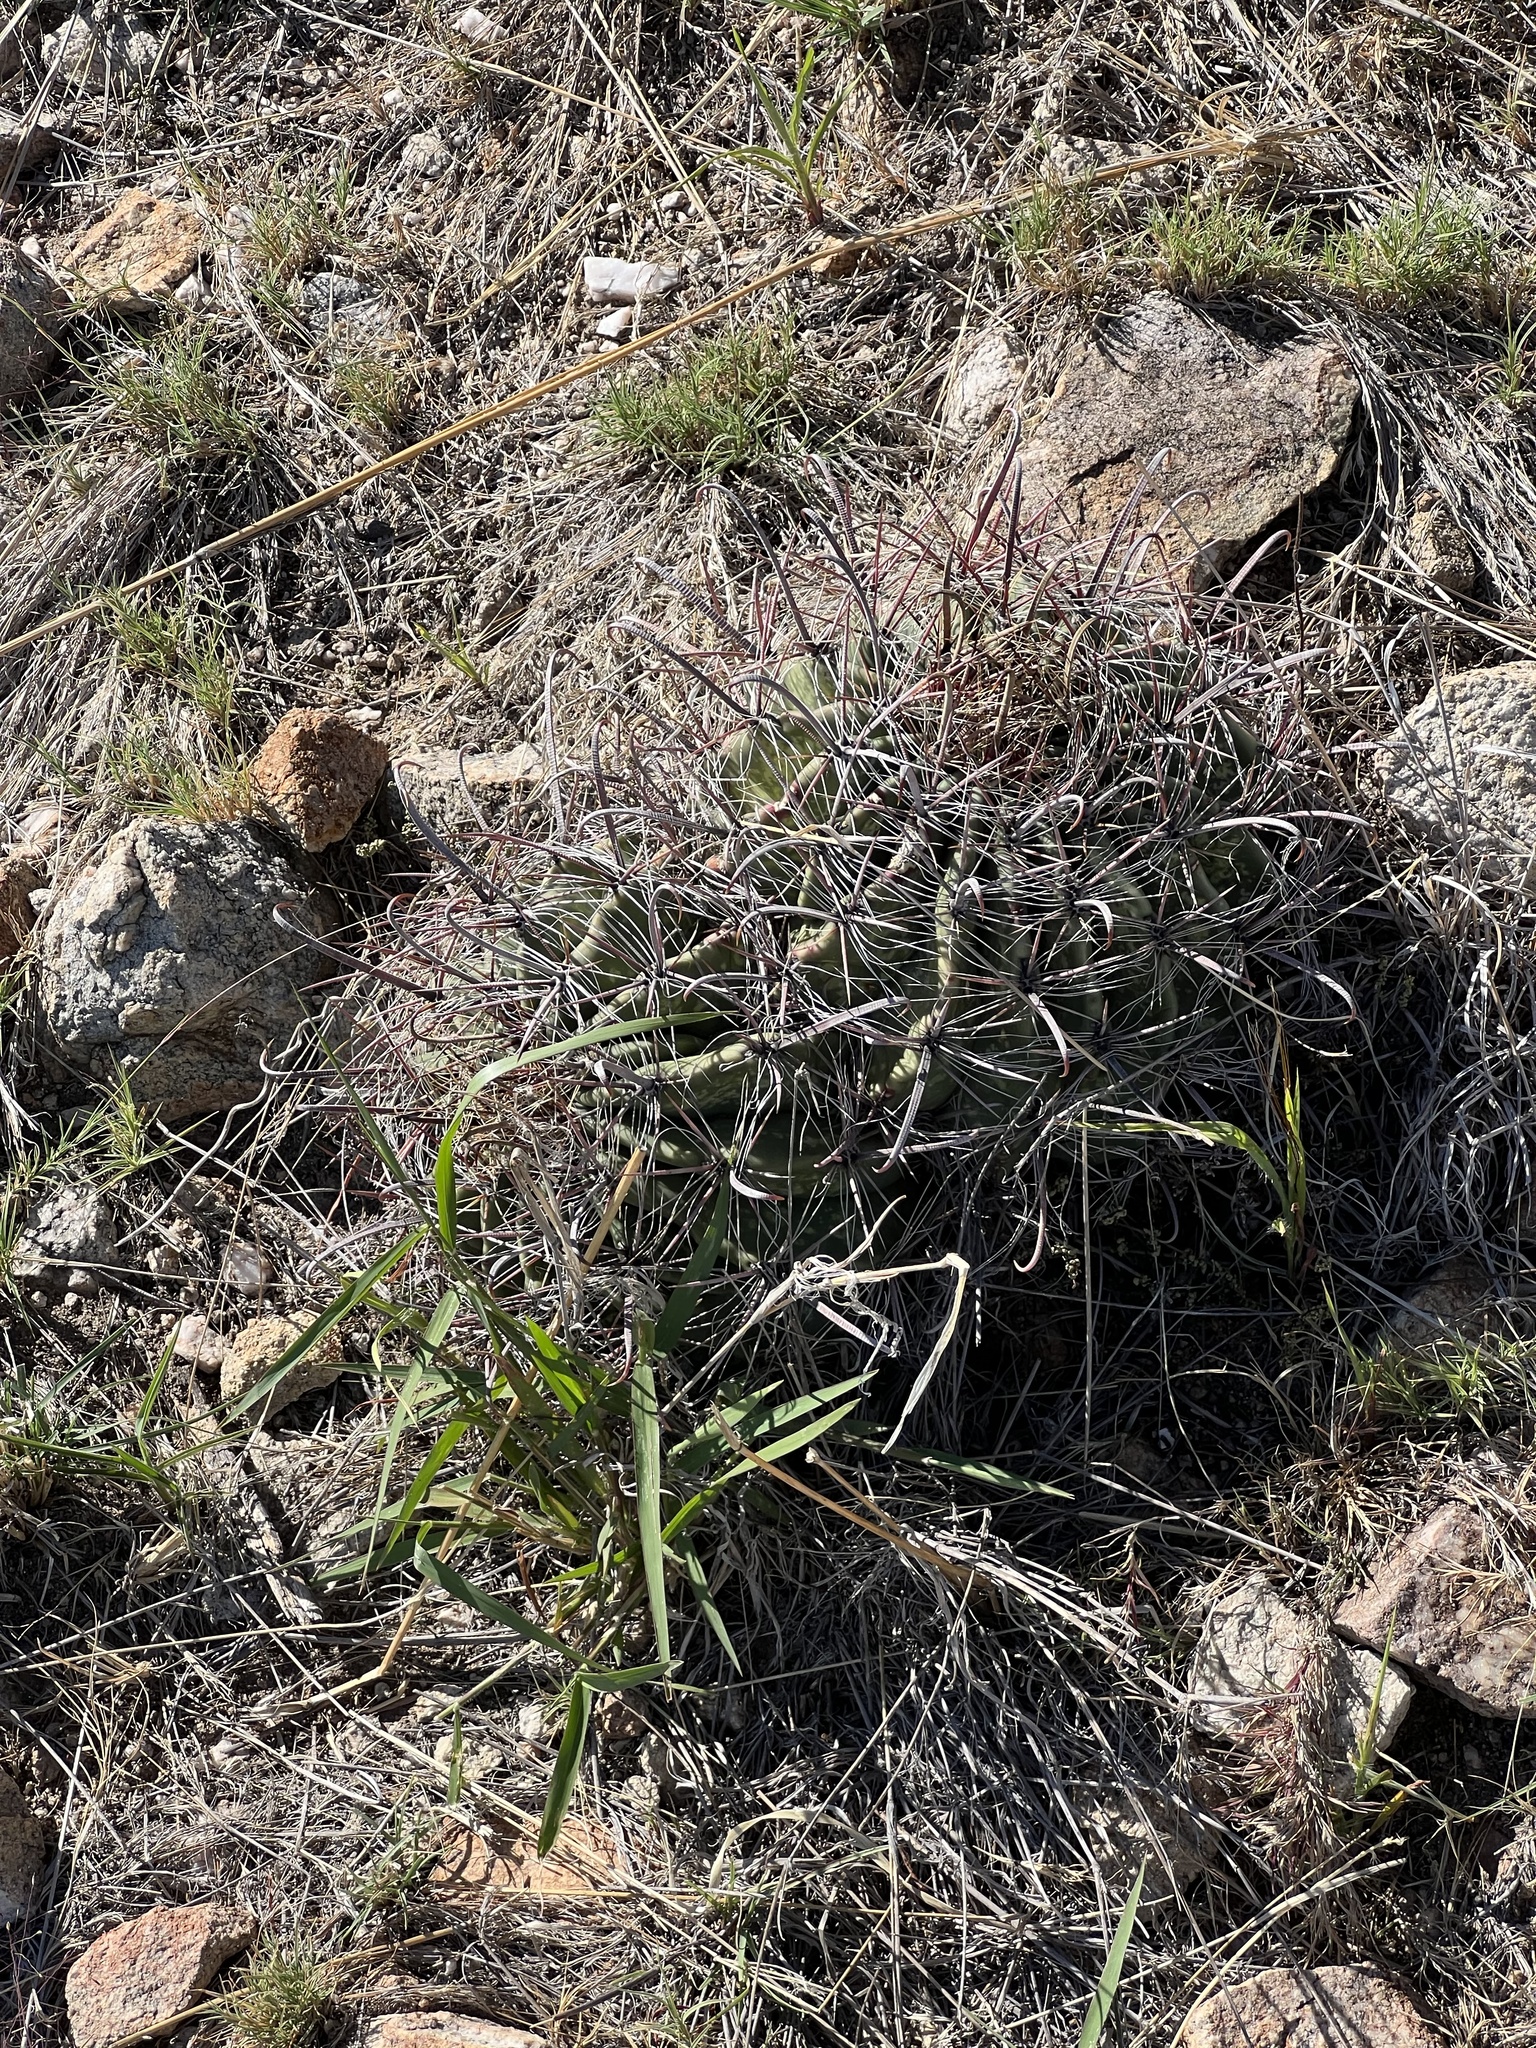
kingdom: Plantae
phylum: Tracheophyta
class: Magnoliopsida
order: Caryophyllales
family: Cactaceae
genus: Ferocactus
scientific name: Ferocactus wislizeni
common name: Candy barrel cactus
